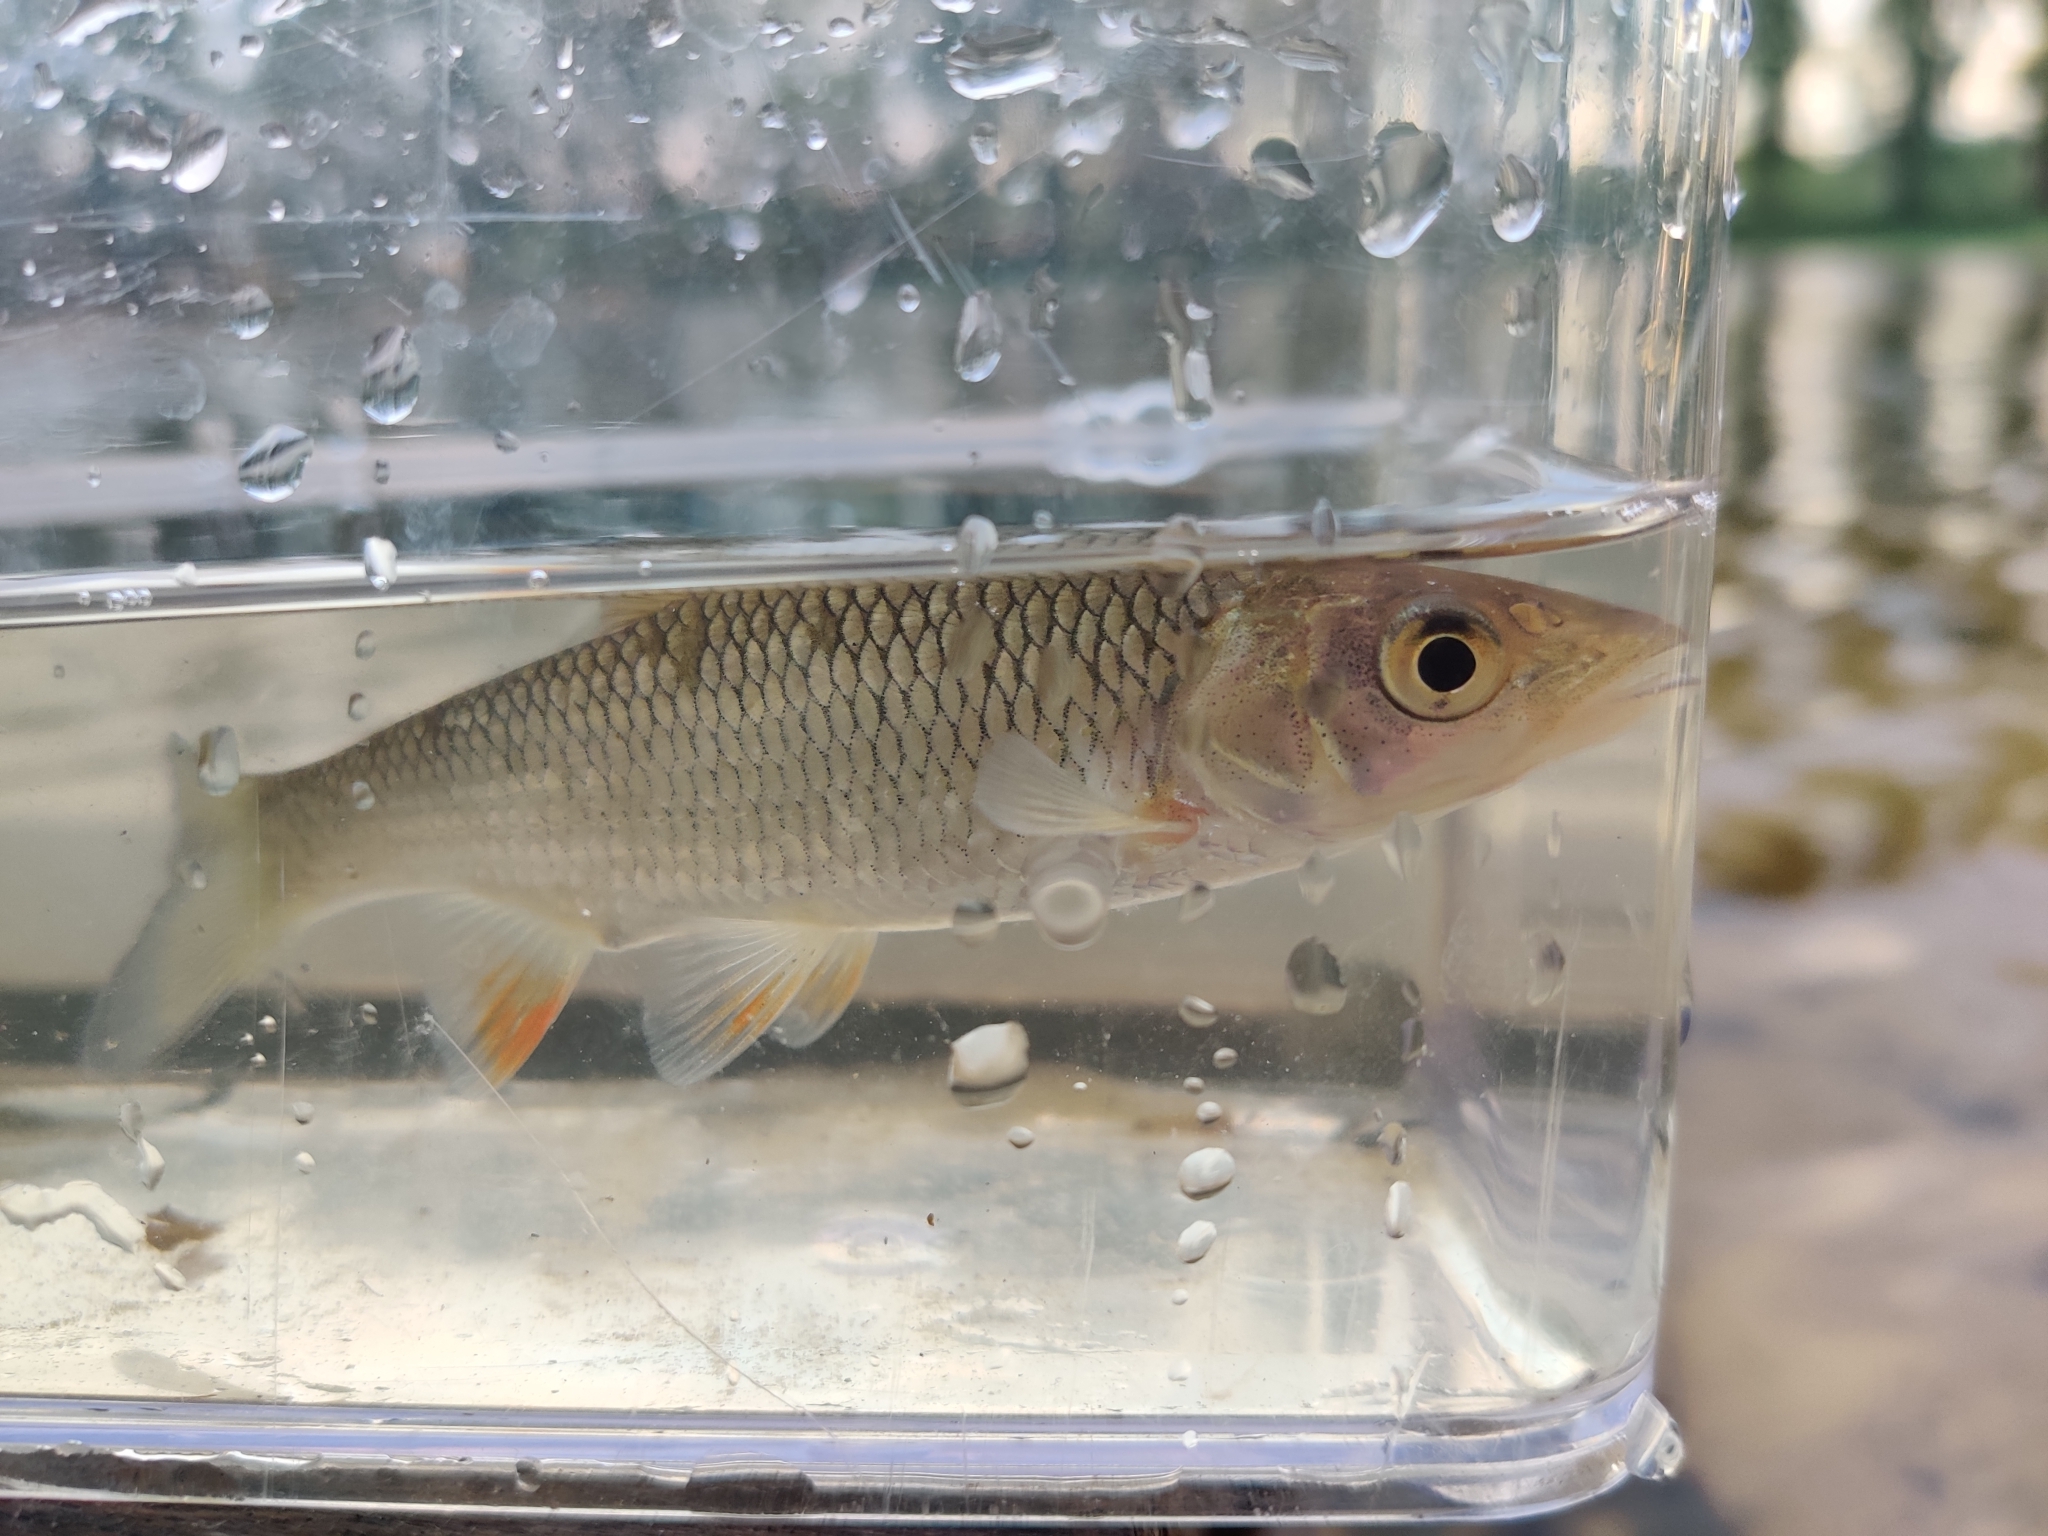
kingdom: Animalia
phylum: Chordata
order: Cypriniformes
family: Cyprinidae
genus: Squalius
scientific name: Squalius cephalus
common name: Chub
